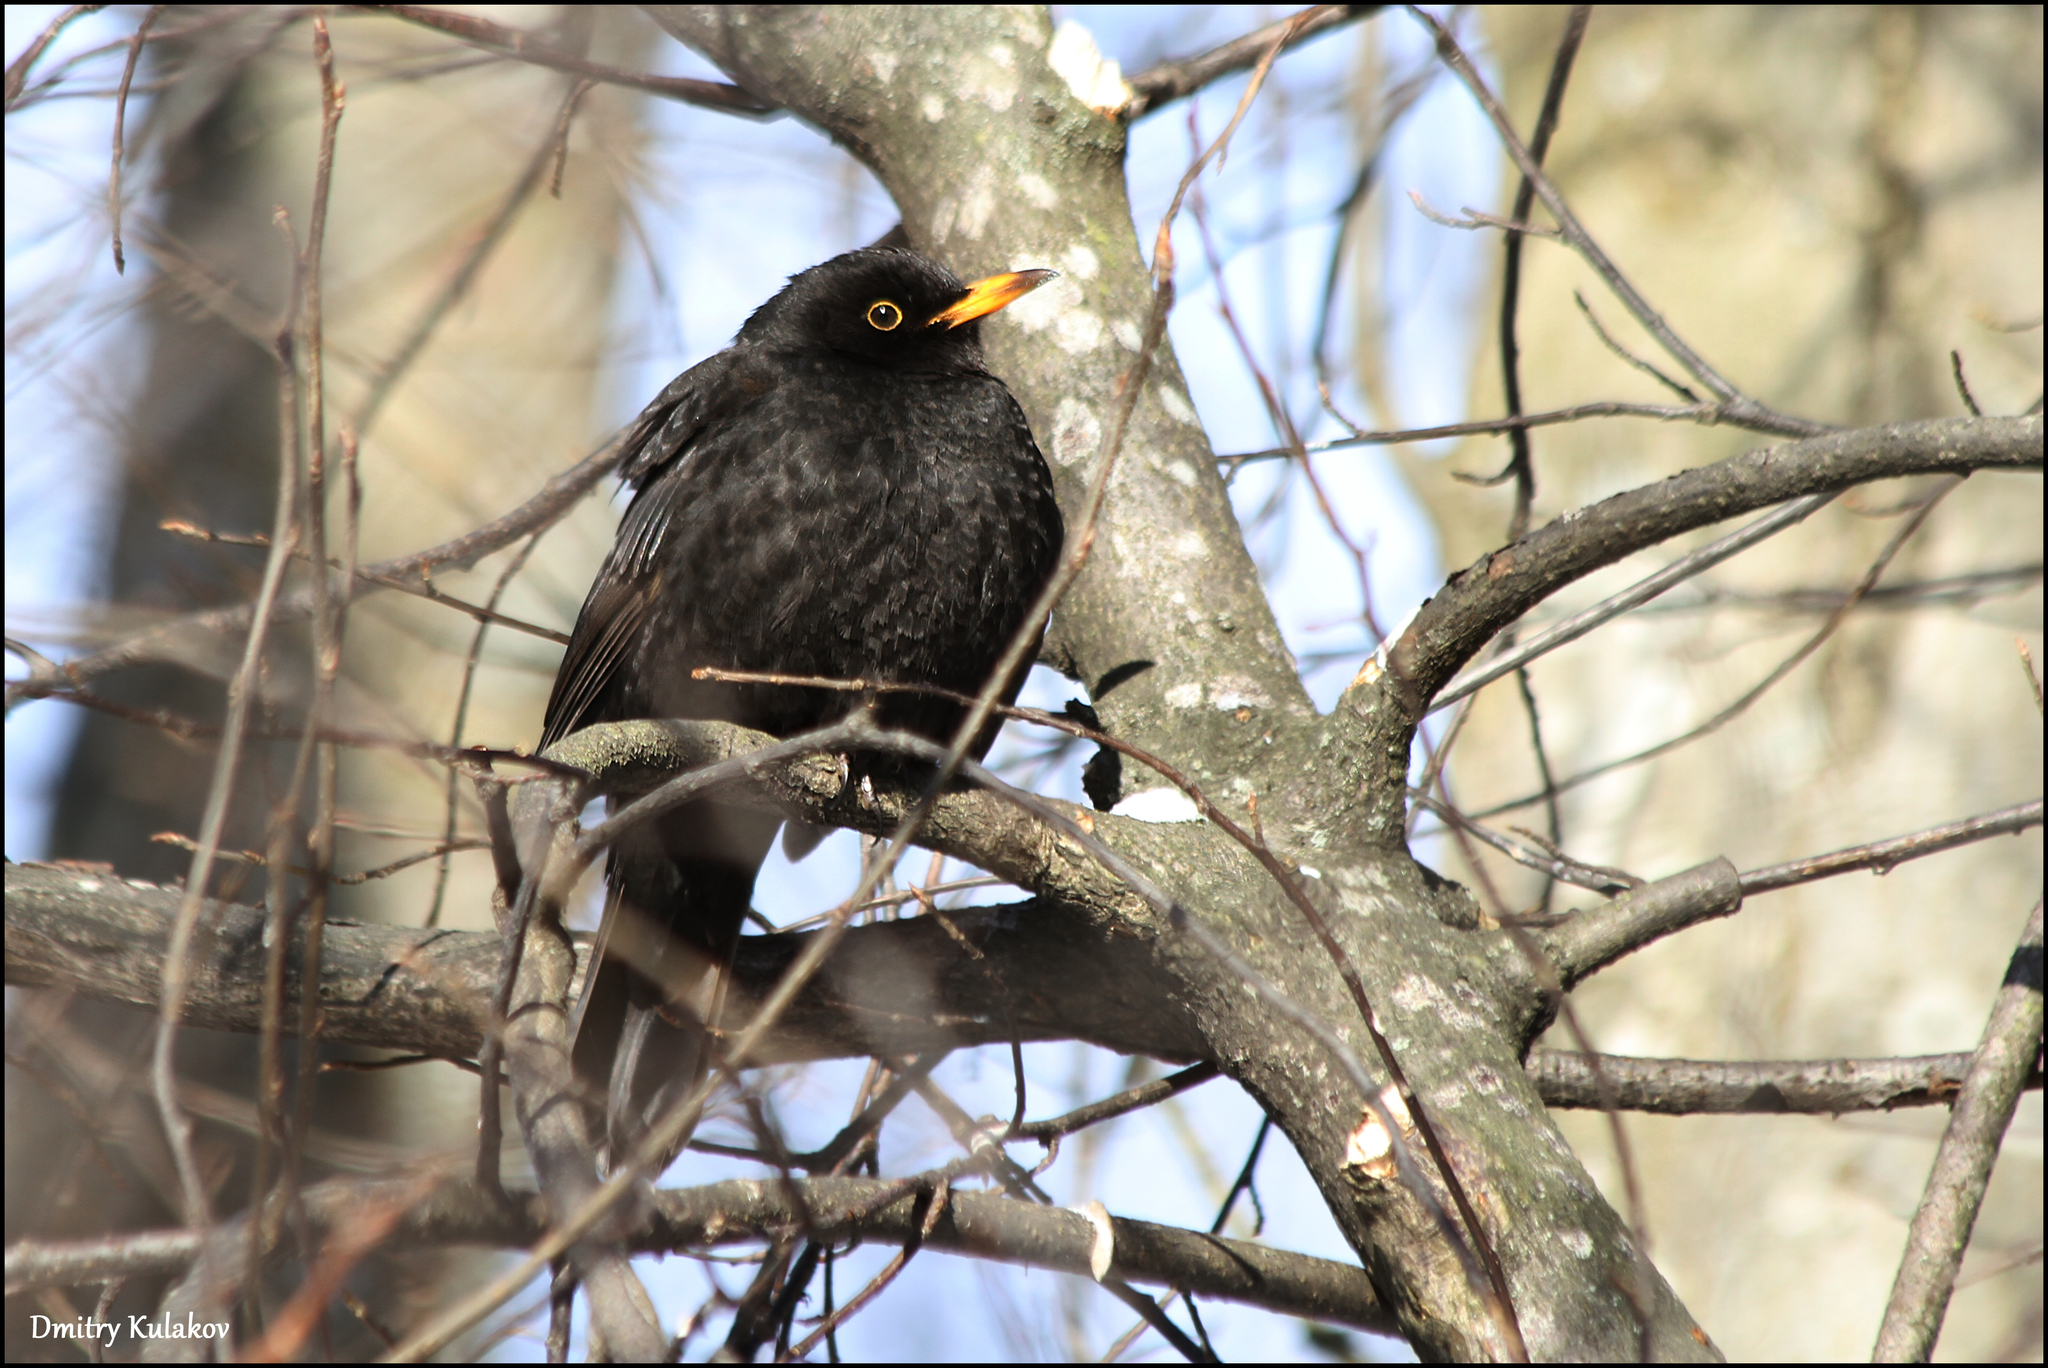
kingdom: Animalia
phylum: Chordata
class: Aves
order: Passeriformes
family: Turdidae
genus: Turdus
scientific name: Turdus merula
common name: Common blackbird
